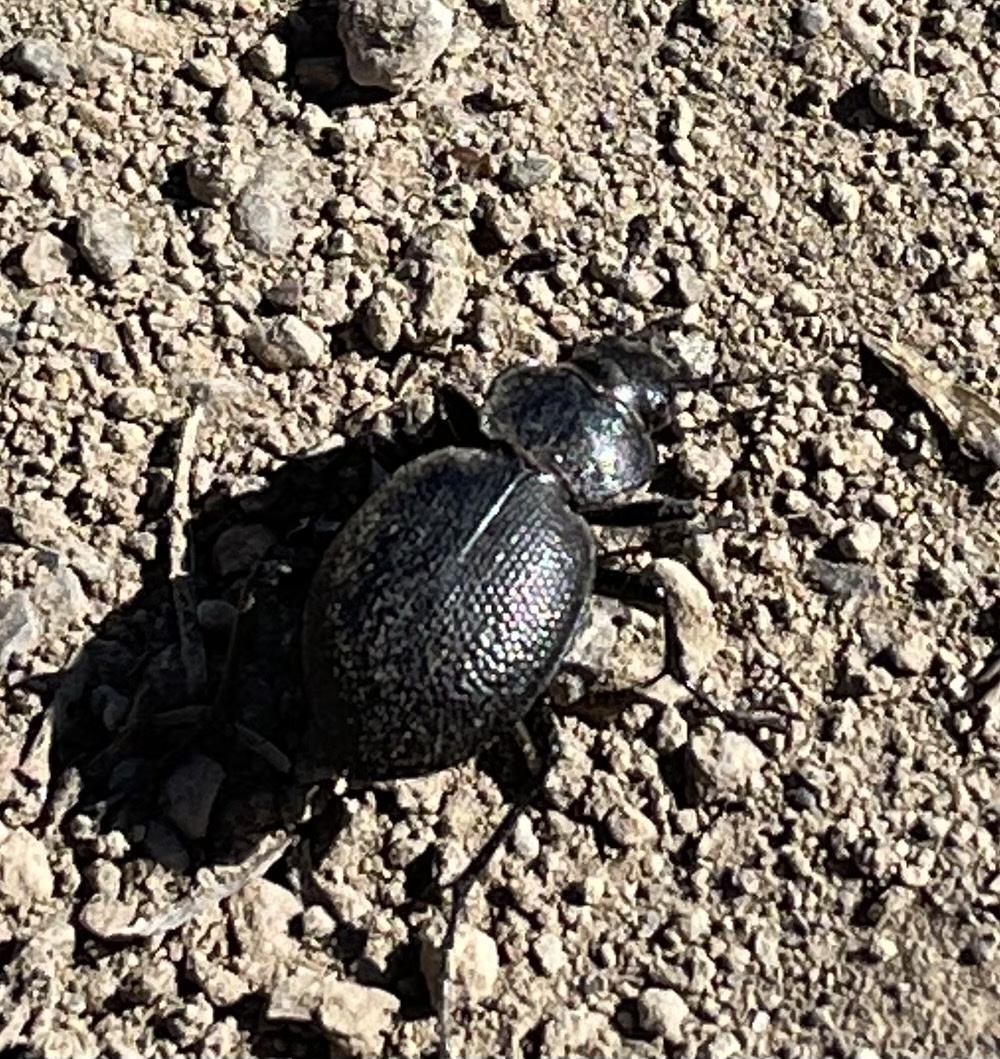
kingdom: Animalia
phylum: Arthropoda
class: Insecta
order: Coleoptera
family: Carabidae
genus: Calosoma
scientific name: Calosoma luxatum
